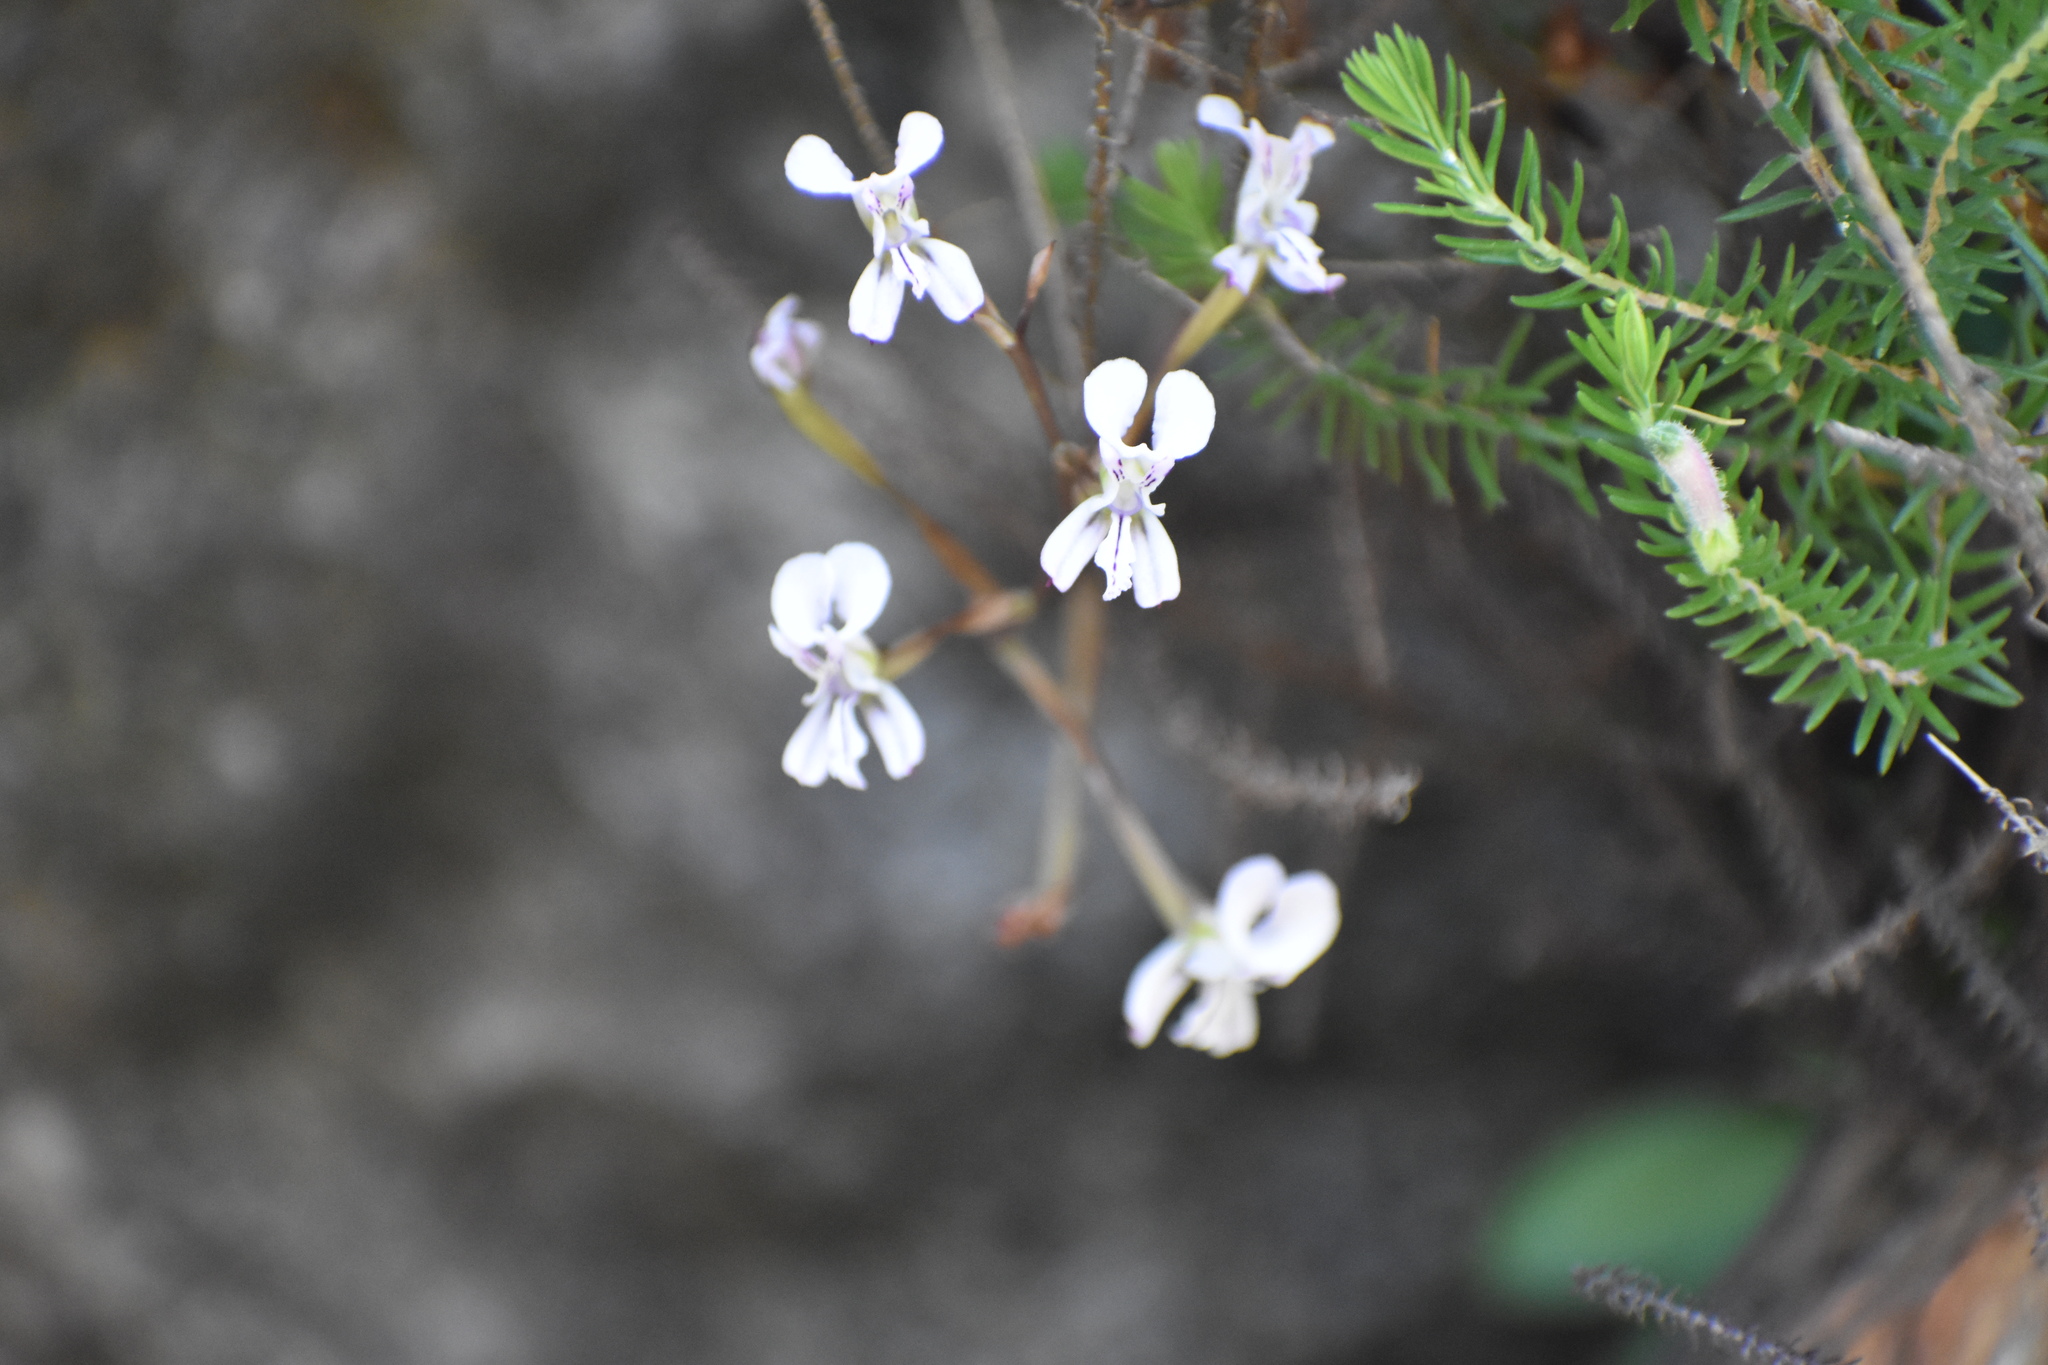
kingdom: Plantae
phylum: Tracheophyta
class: Liliopsida
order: Asparagales
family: Orchidaceae
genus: Disa
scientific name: Disa sagittalis
